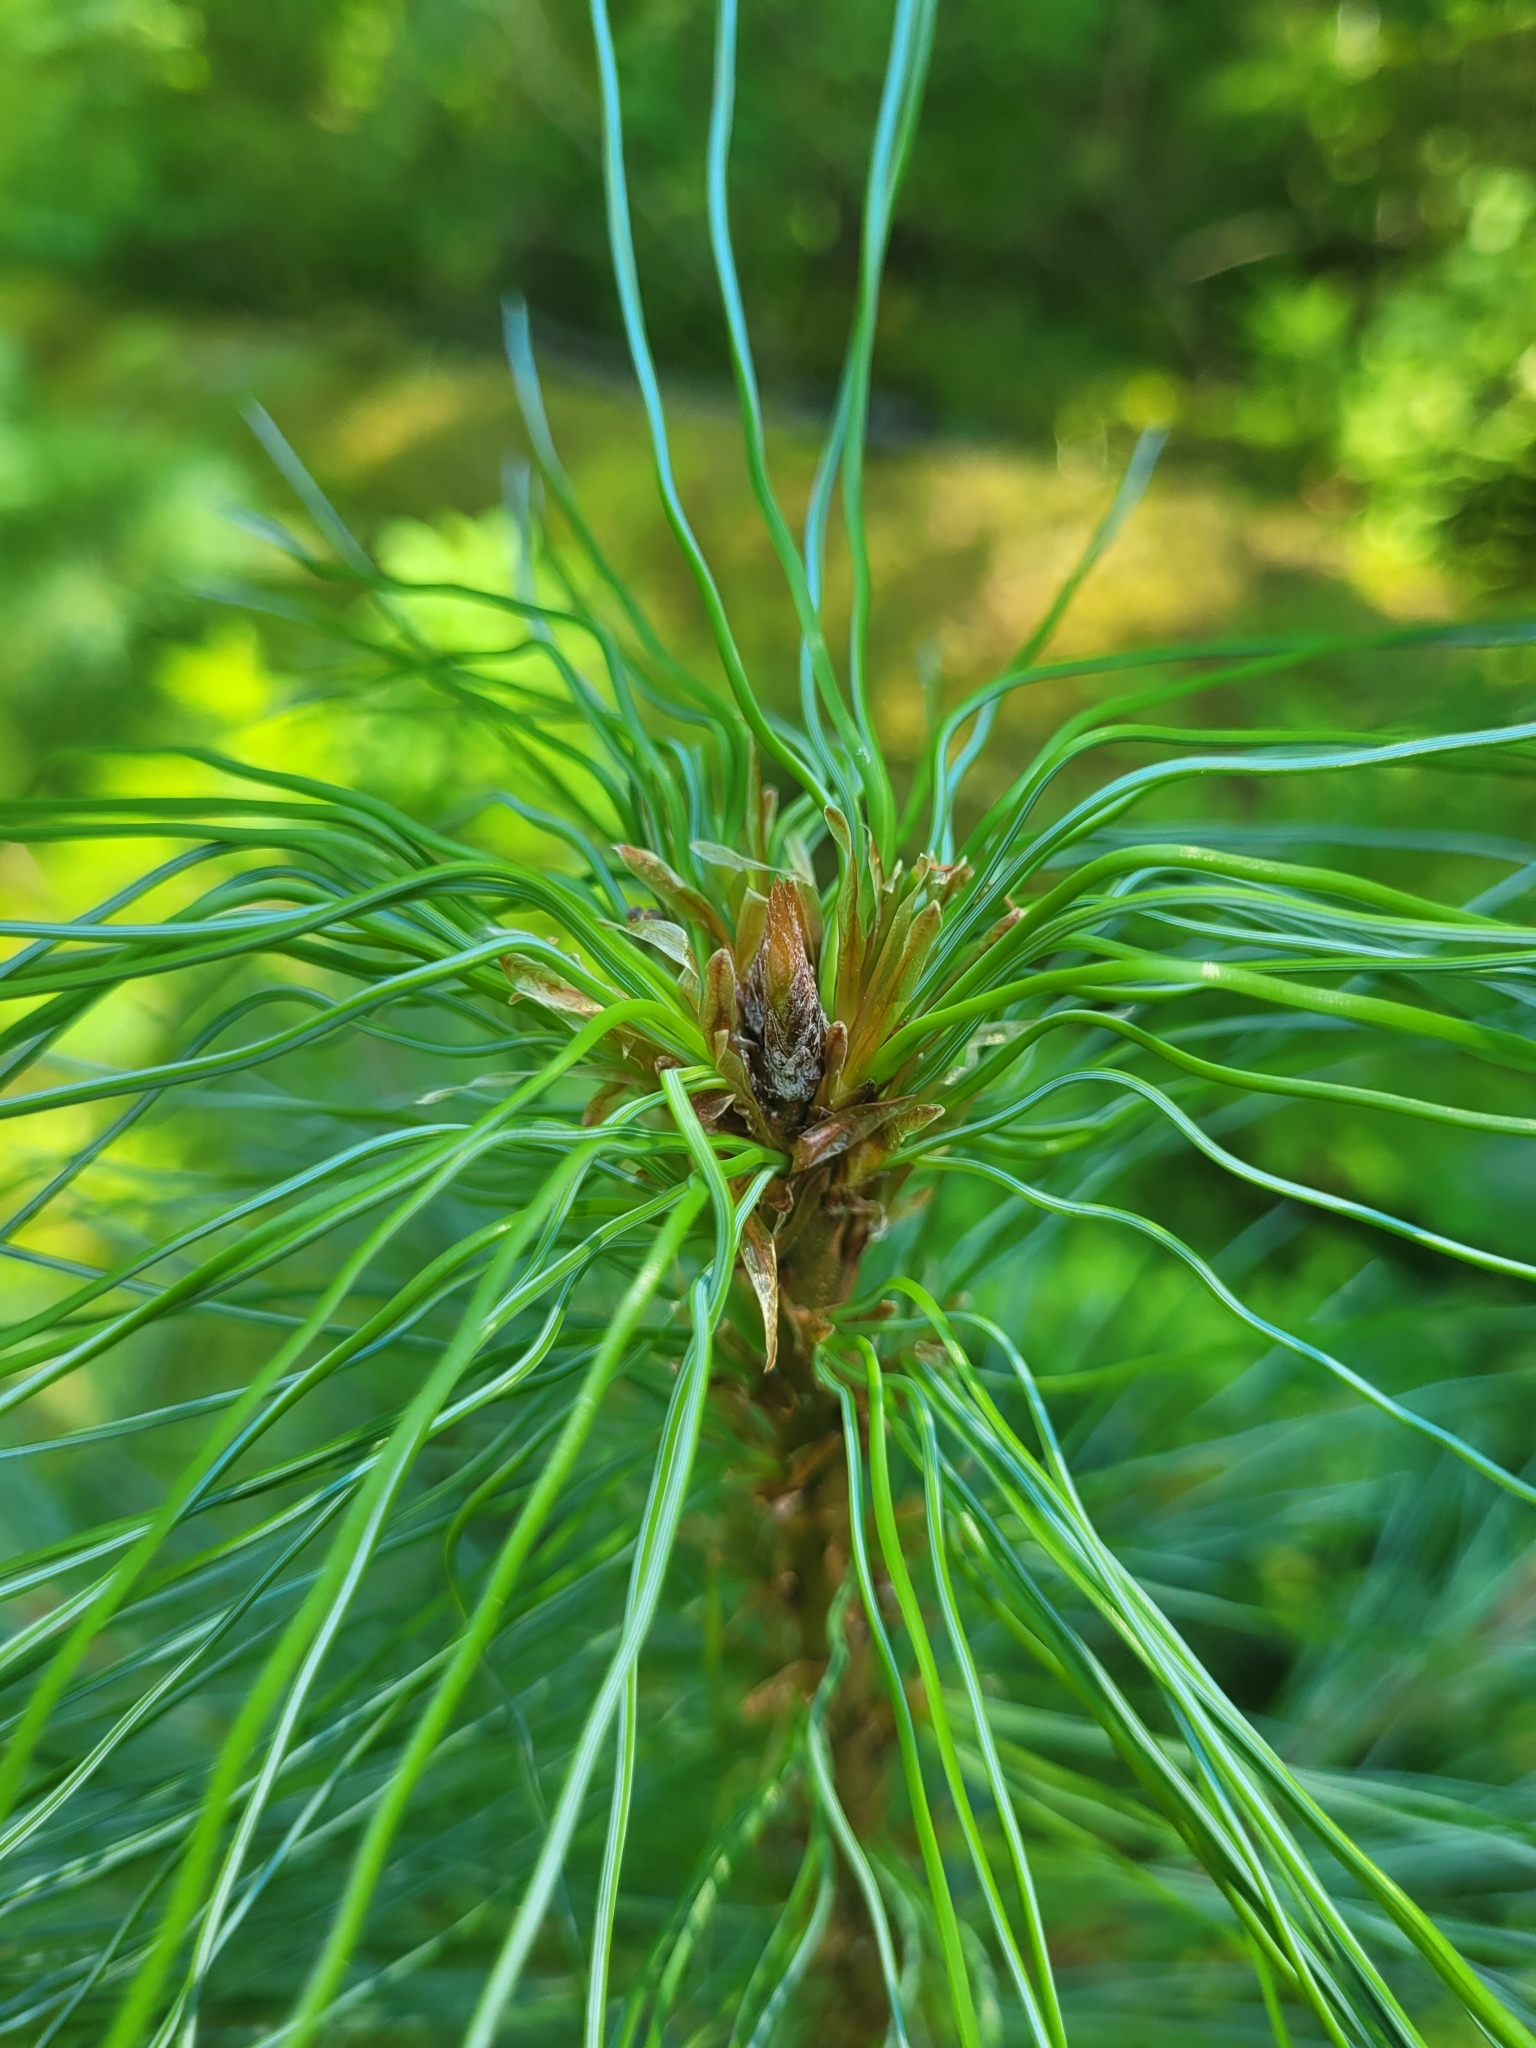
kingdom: Plantae
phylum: Tracheophyta
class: Pinopsida
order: Pinales
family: Pinaceae
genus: Pinus
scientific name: Pinus monticola
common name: Western white pine
